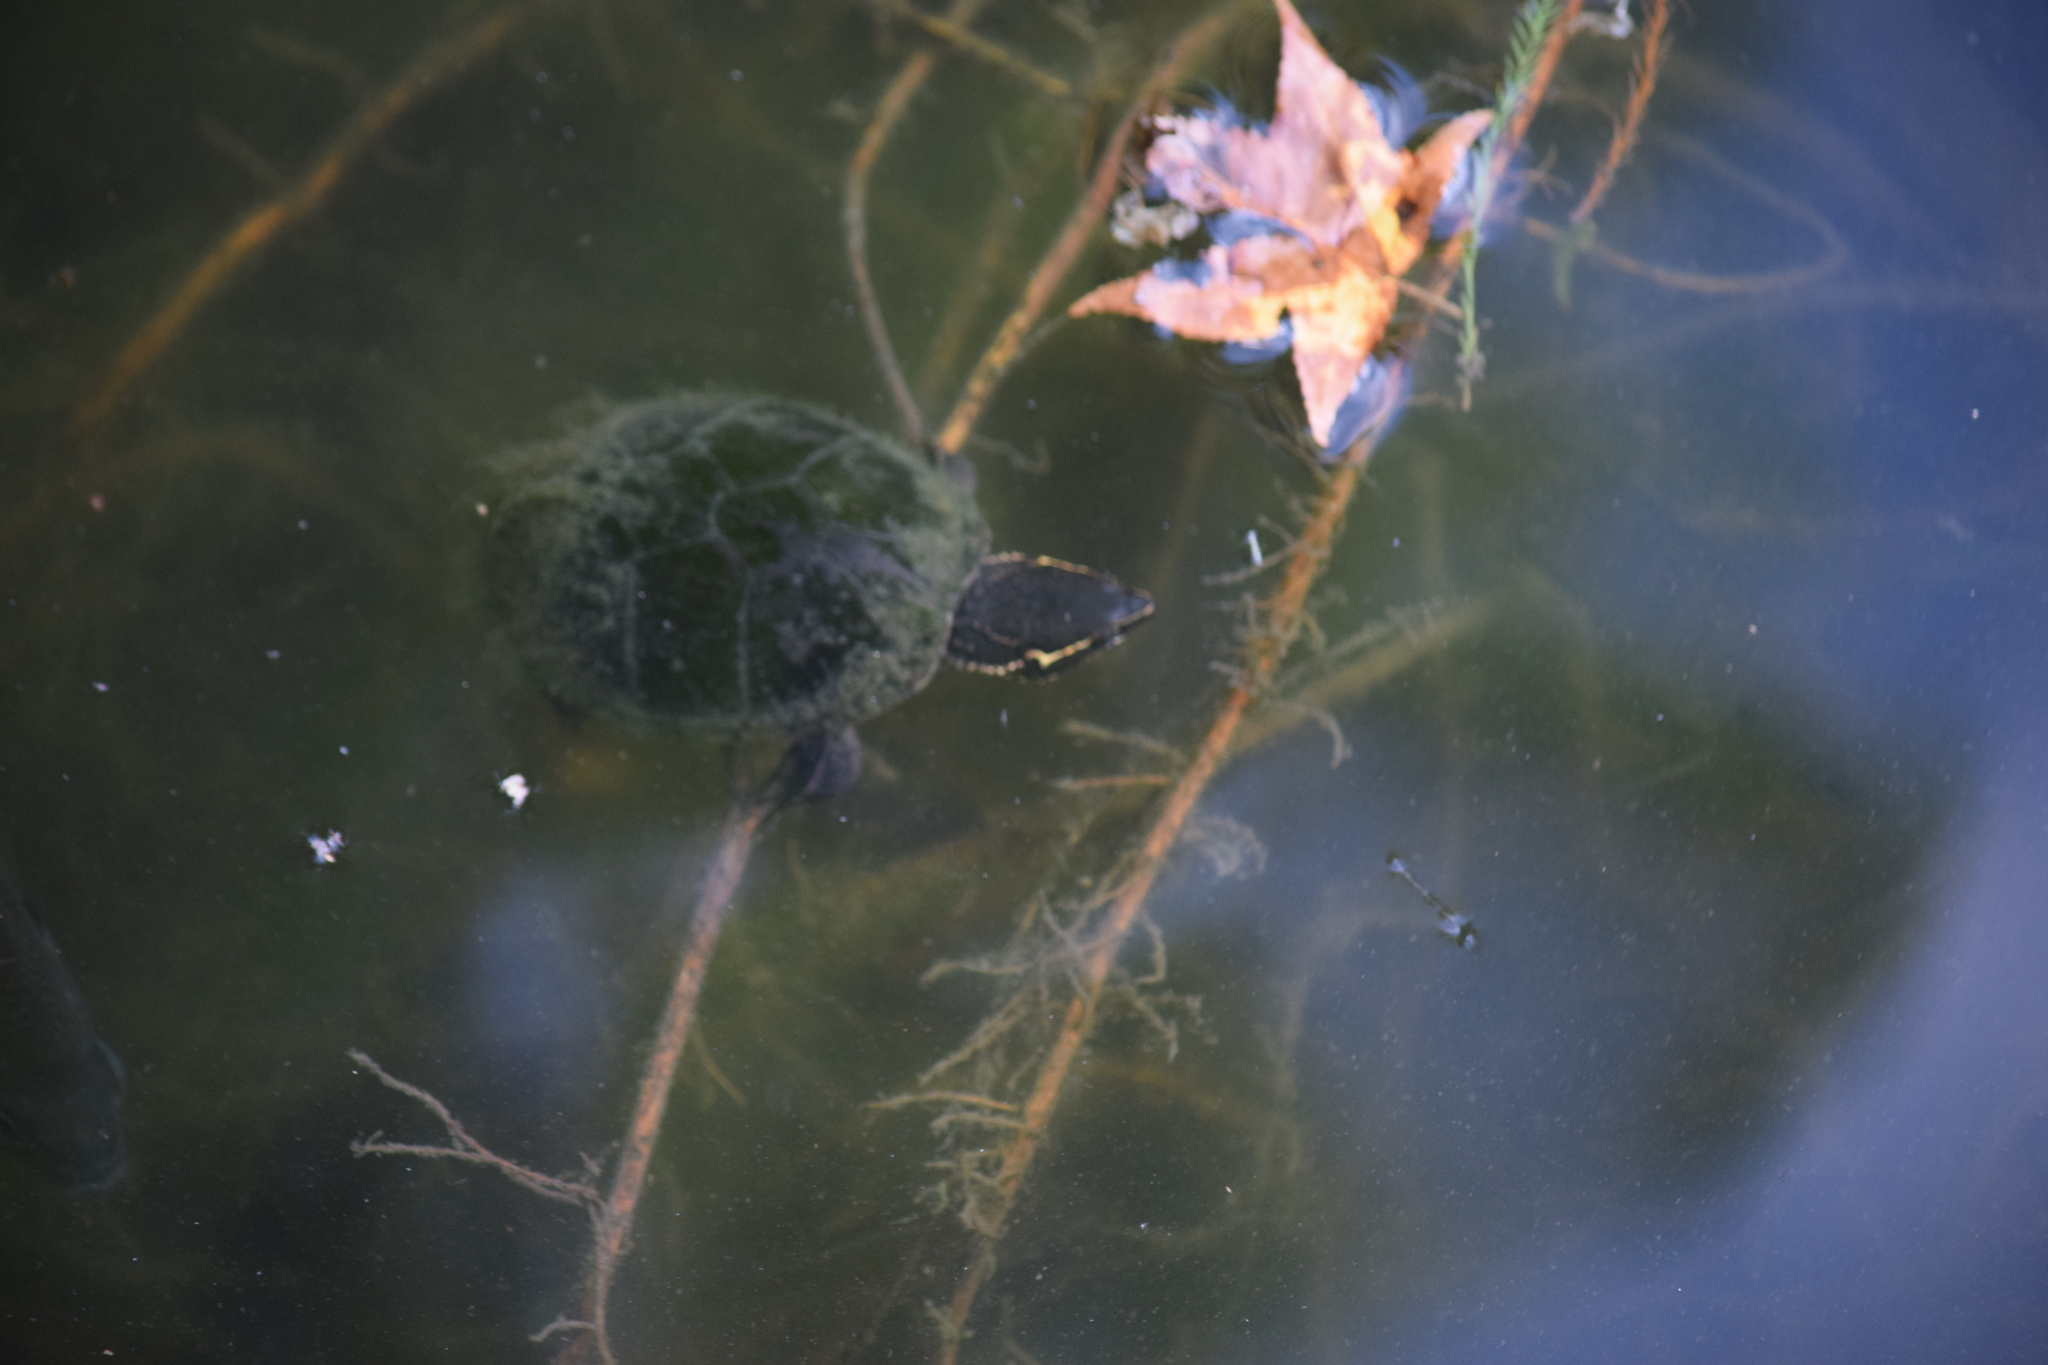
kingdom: Animalia
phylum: Chordata
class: Testudines
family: Kinosternidae
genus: Sternotherus
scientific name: Sternotherus odoratus
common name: Common musk turtle
